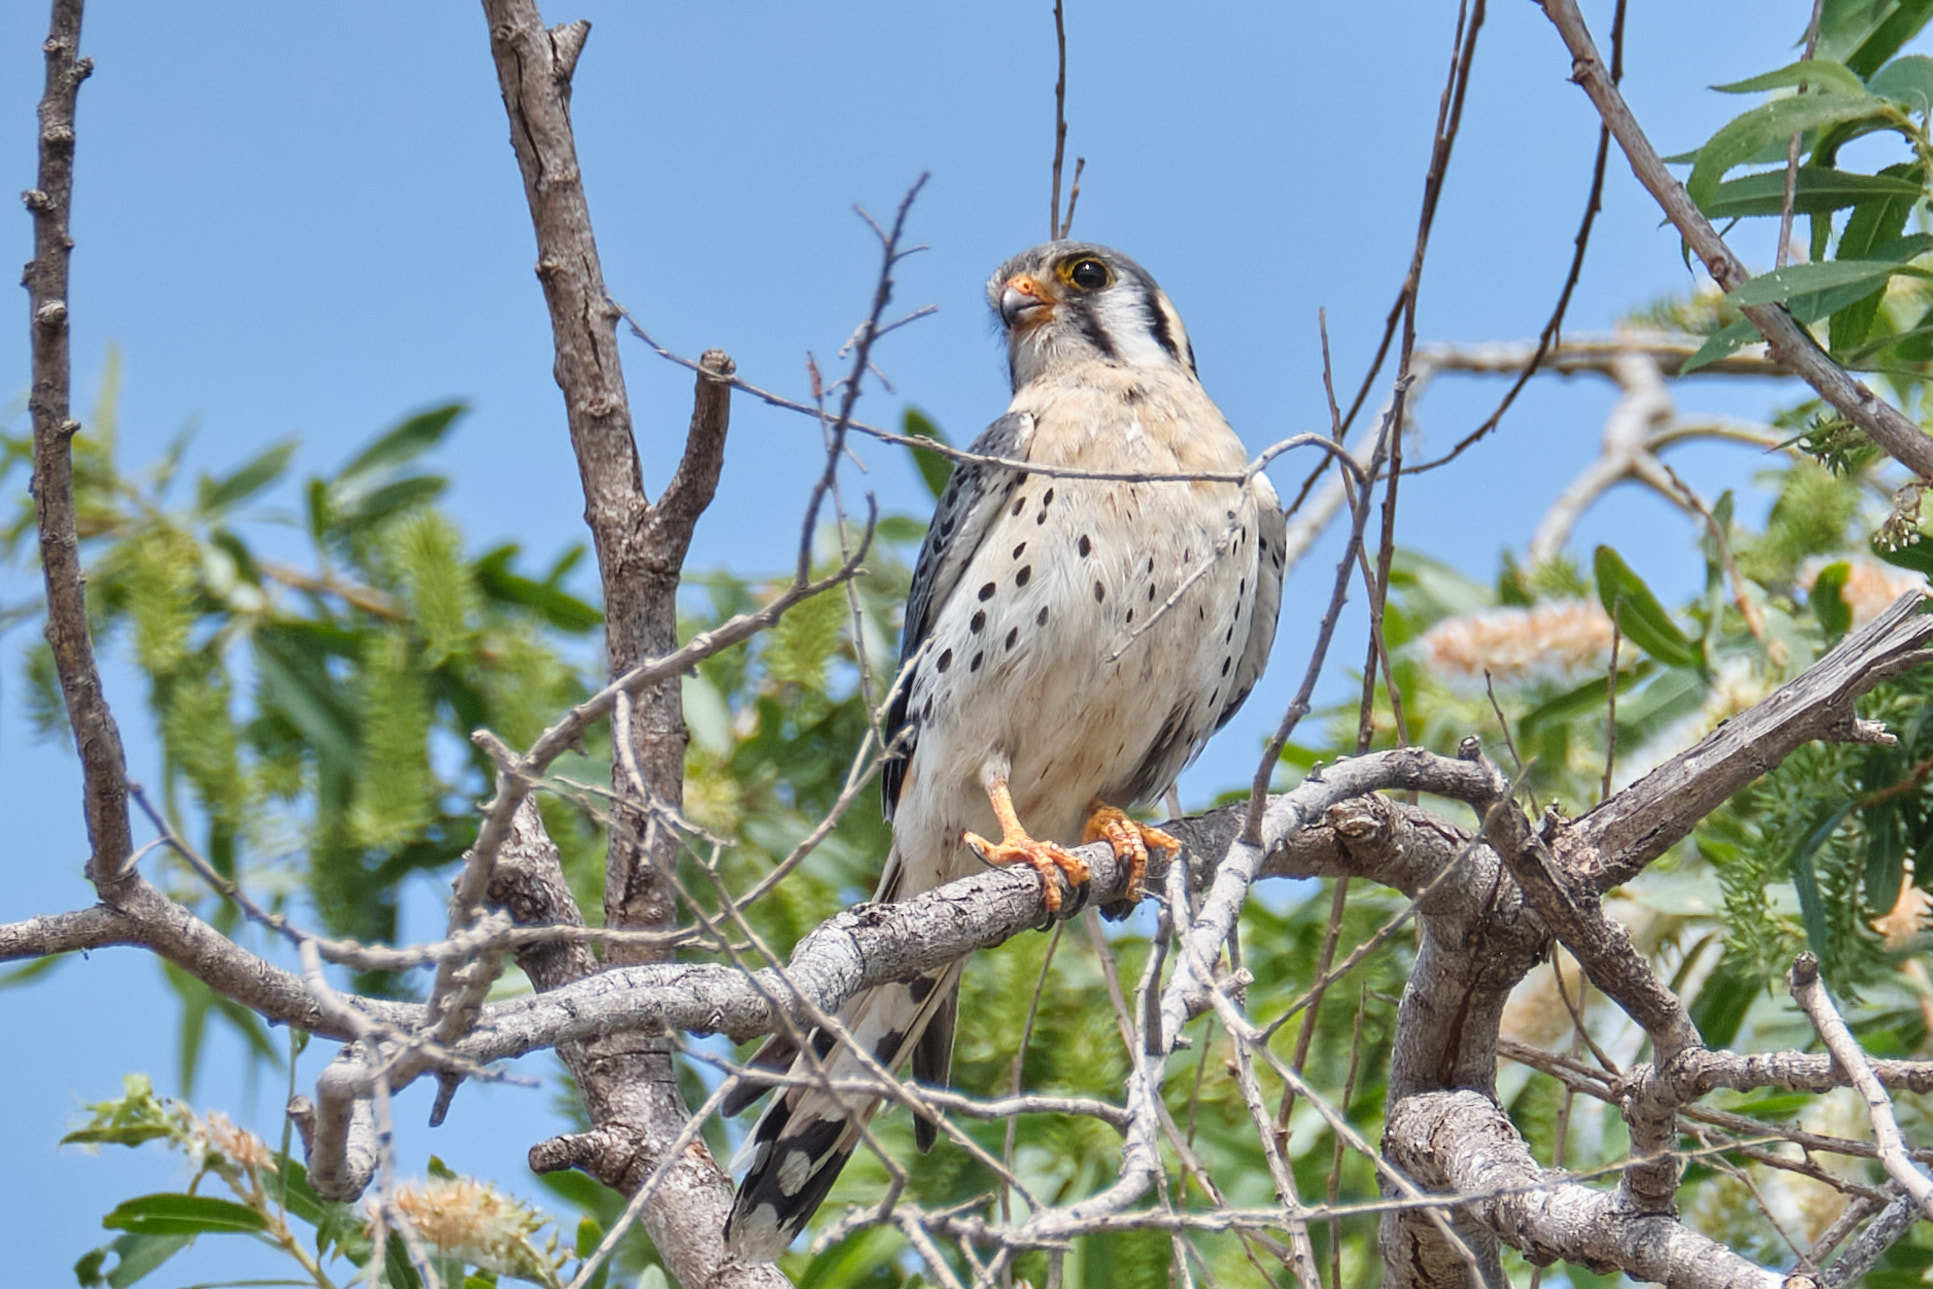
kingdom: Animalia
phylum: Chordata
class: Aves
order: Falconiformes
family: Falconidae
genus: Falco
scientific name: Falco sparverius
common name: American kestrel
